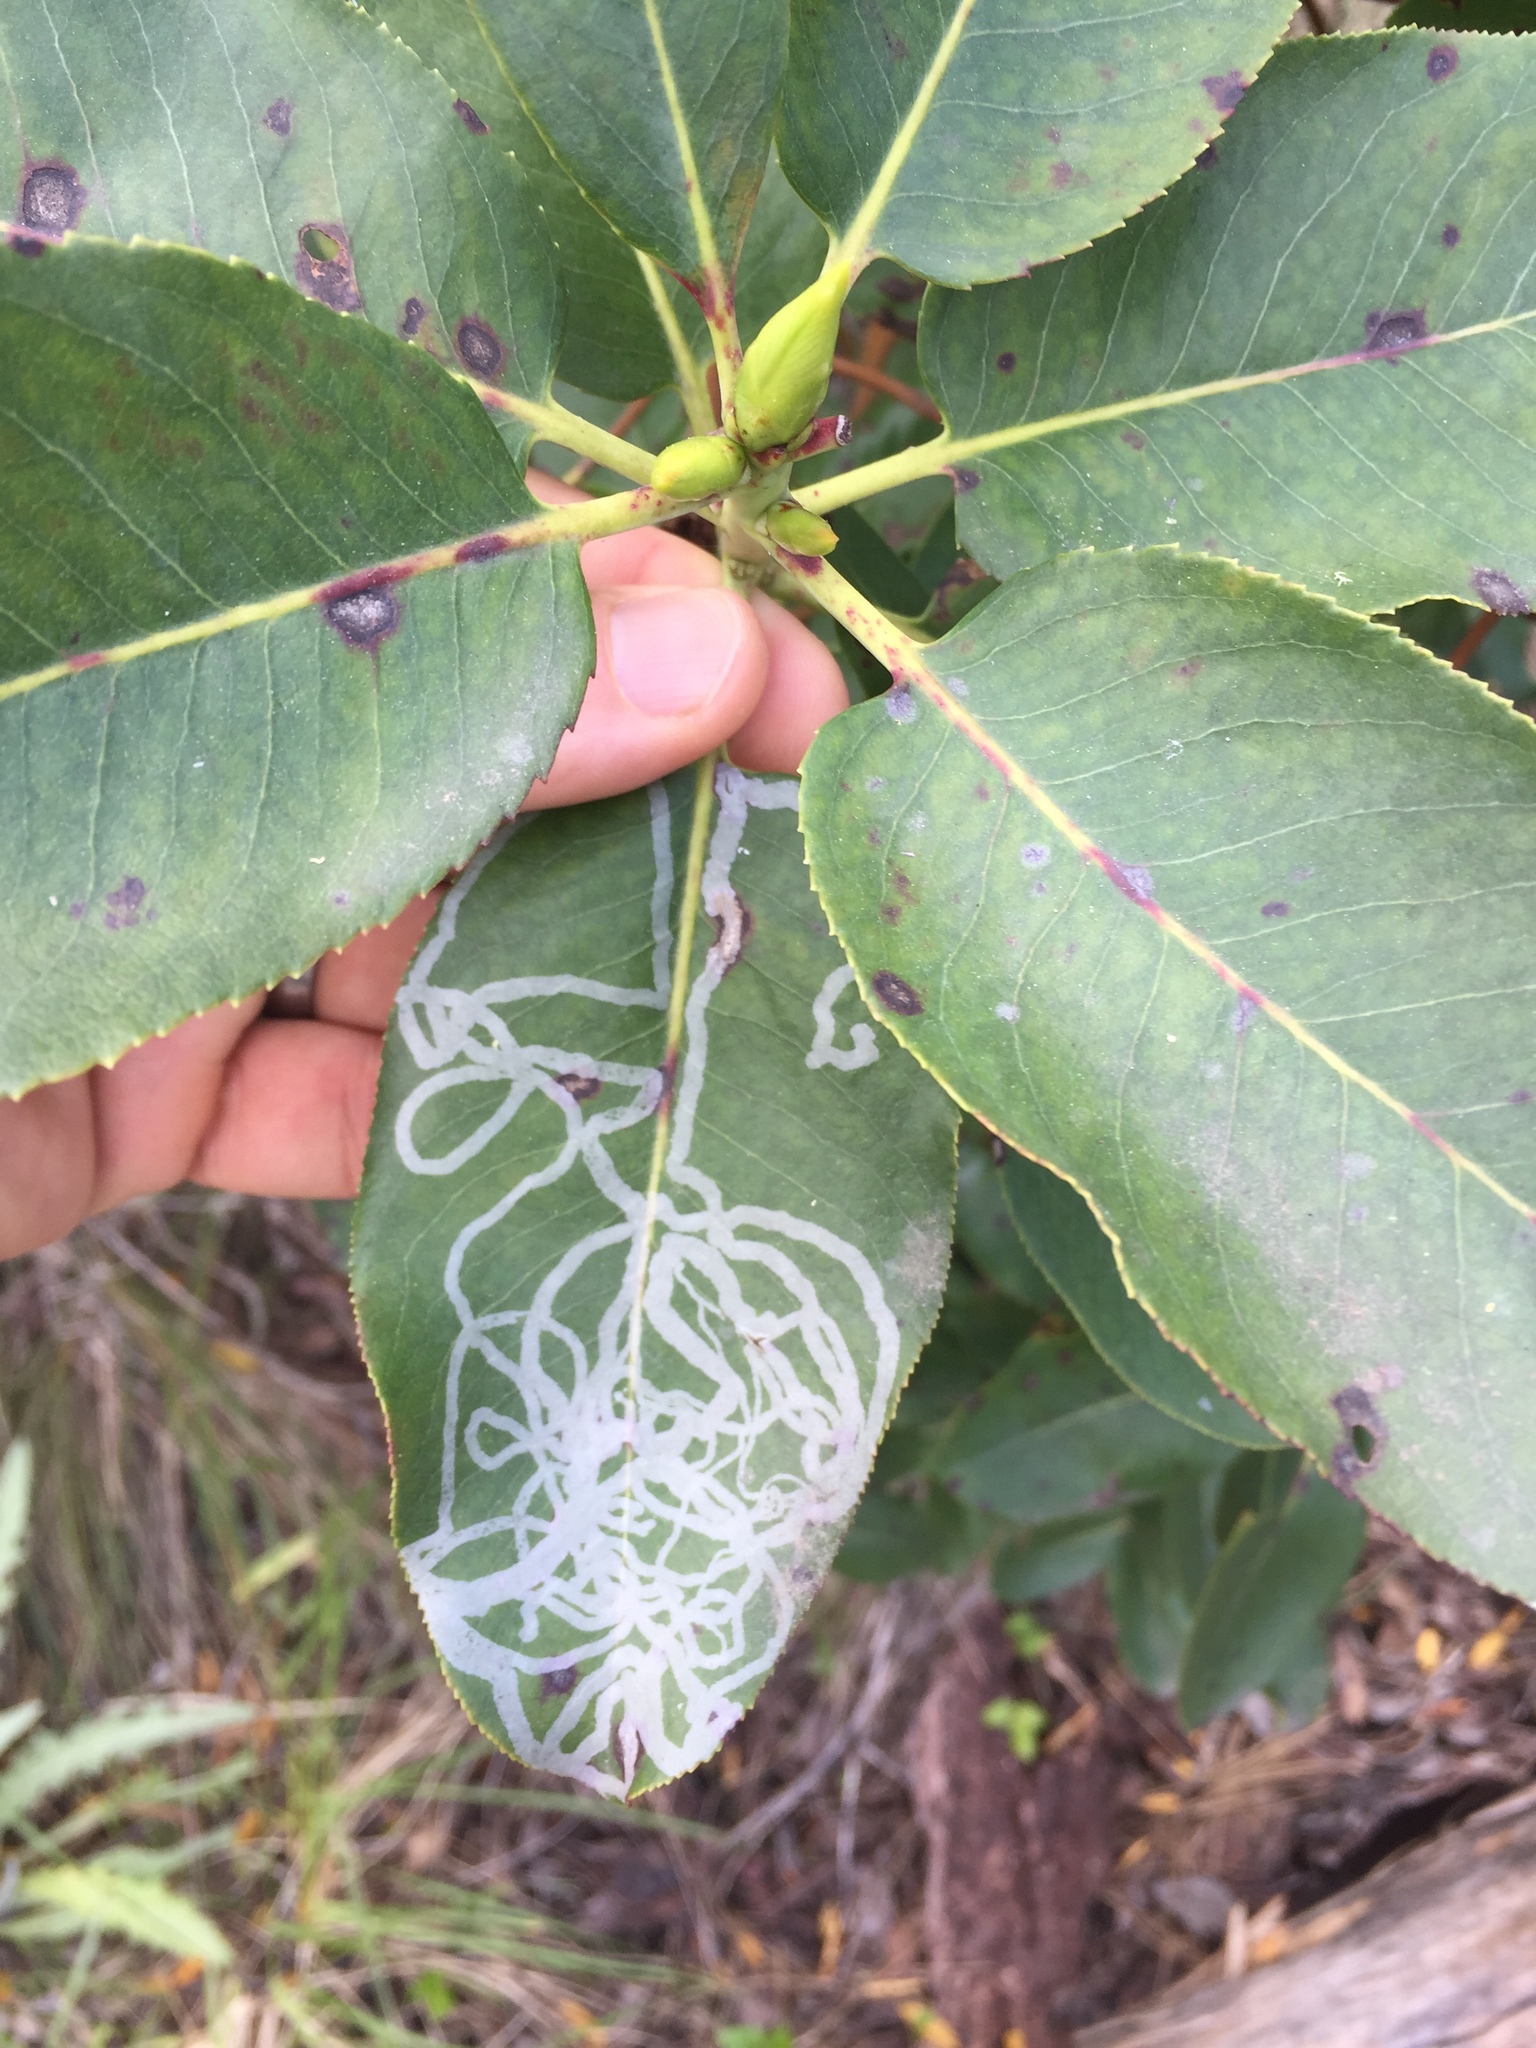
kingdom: Animalia
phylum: Arthropoda
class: Insecta
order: Lepidoptera
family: Gracillariidae
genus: Marmara
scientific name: Marmara arbutiella
